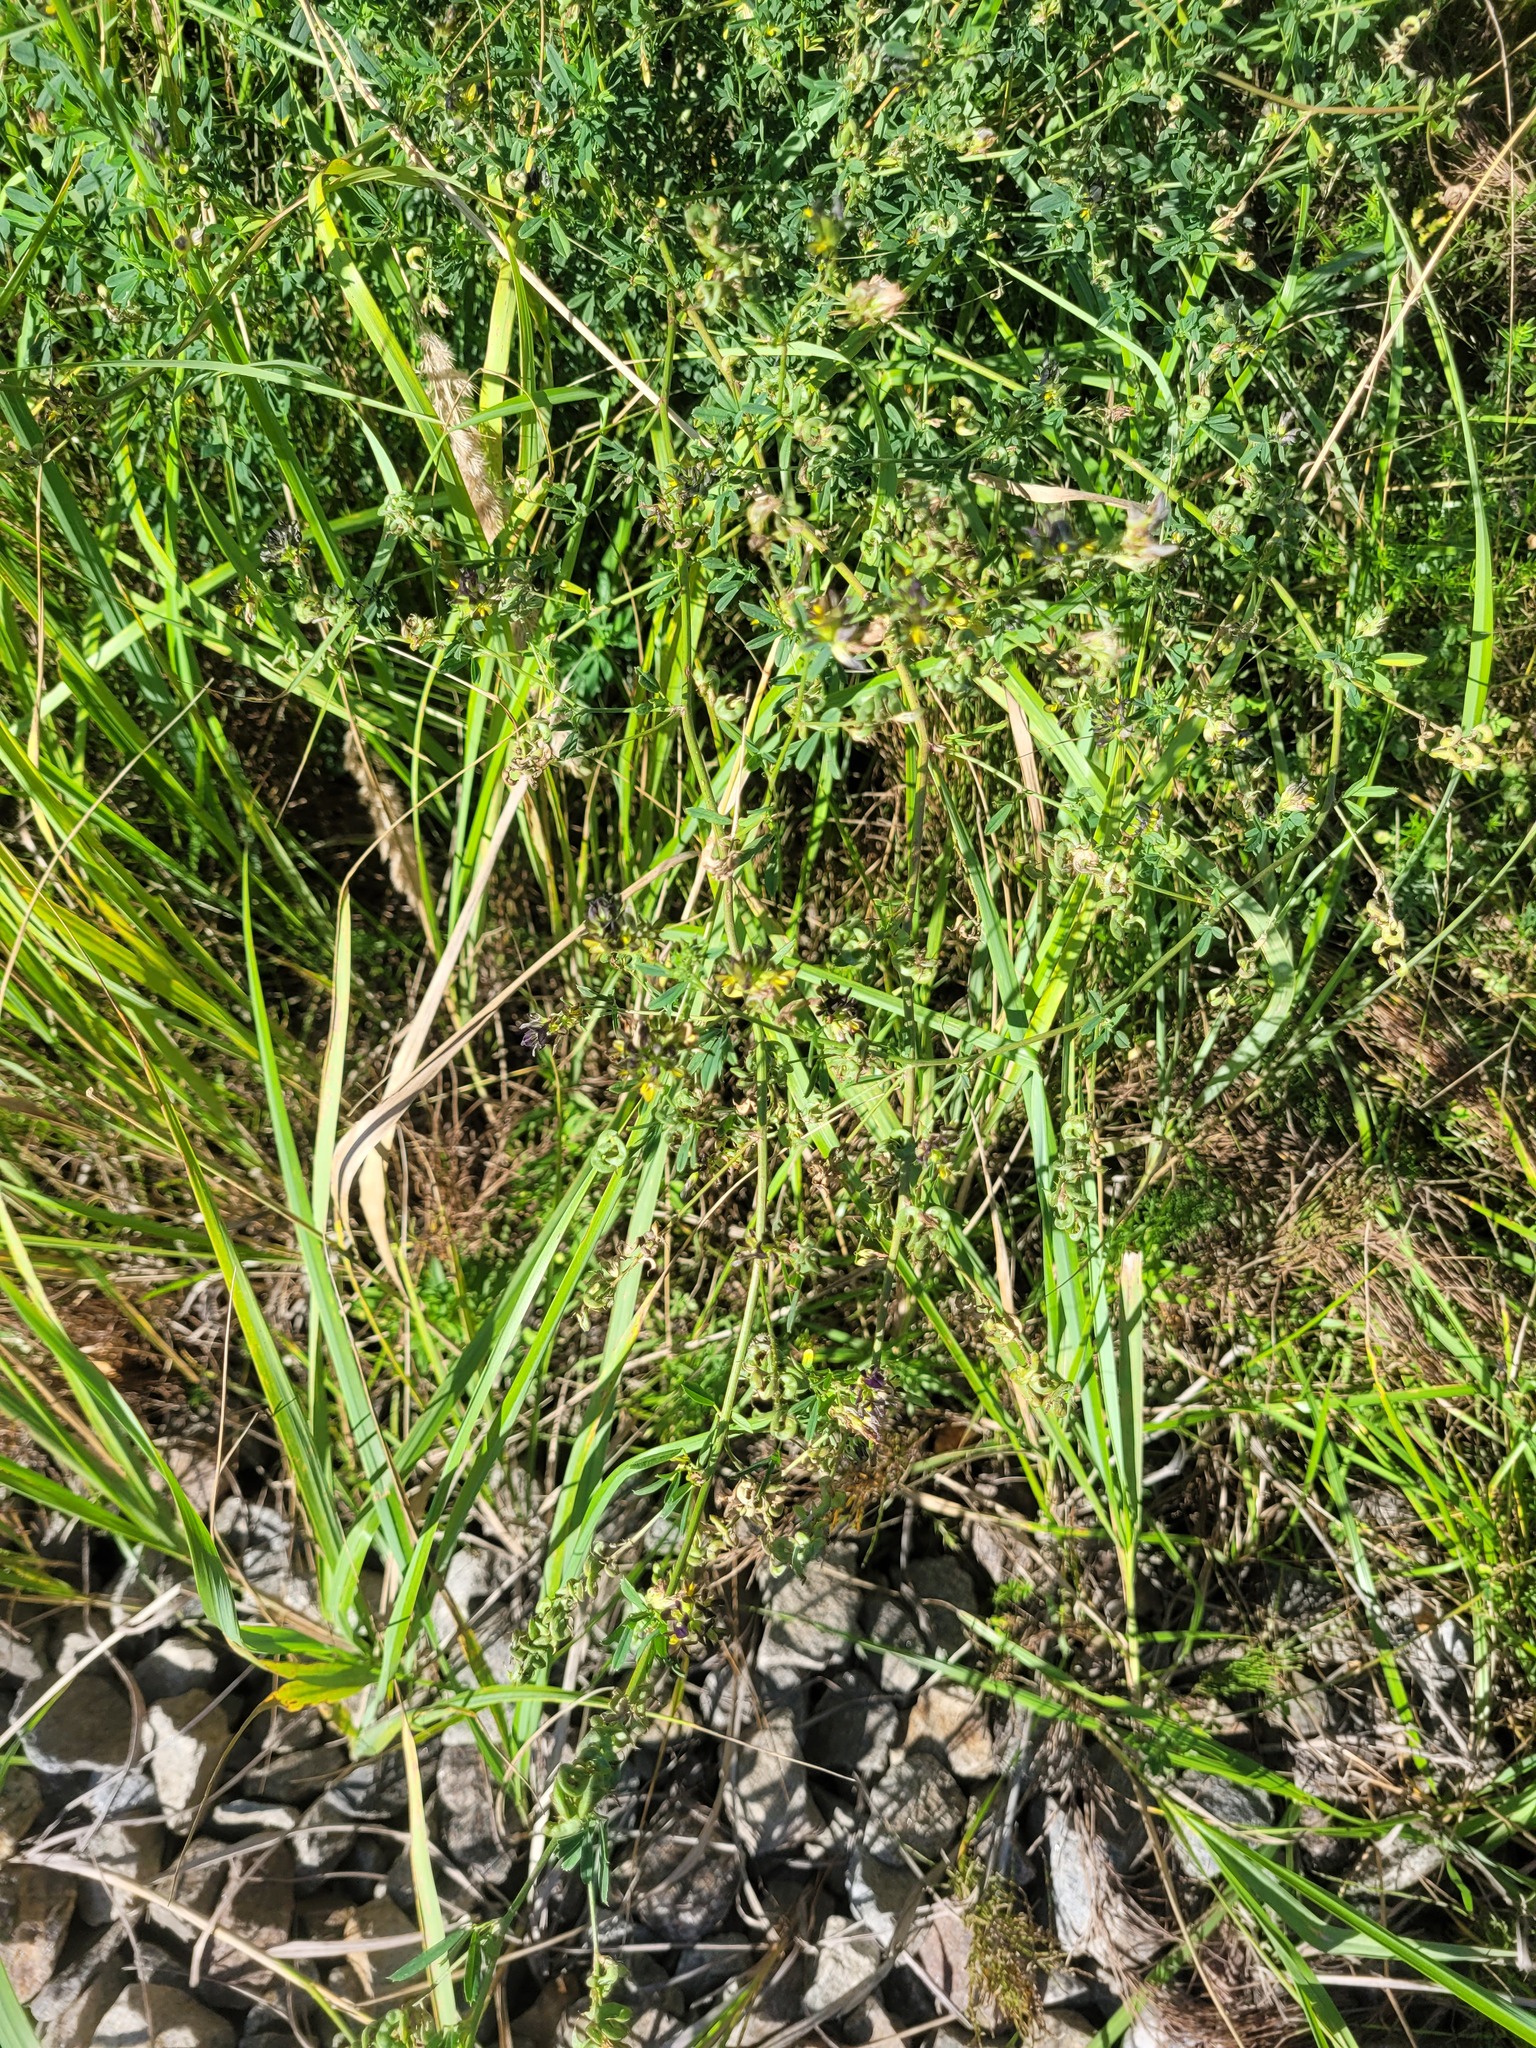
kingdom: Plantae
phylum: Tracheophyta
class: Magnoliopsida
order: Fabales
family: Fabaceae
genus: Medicago
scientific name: Medicago varia
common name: Sand lucerne
